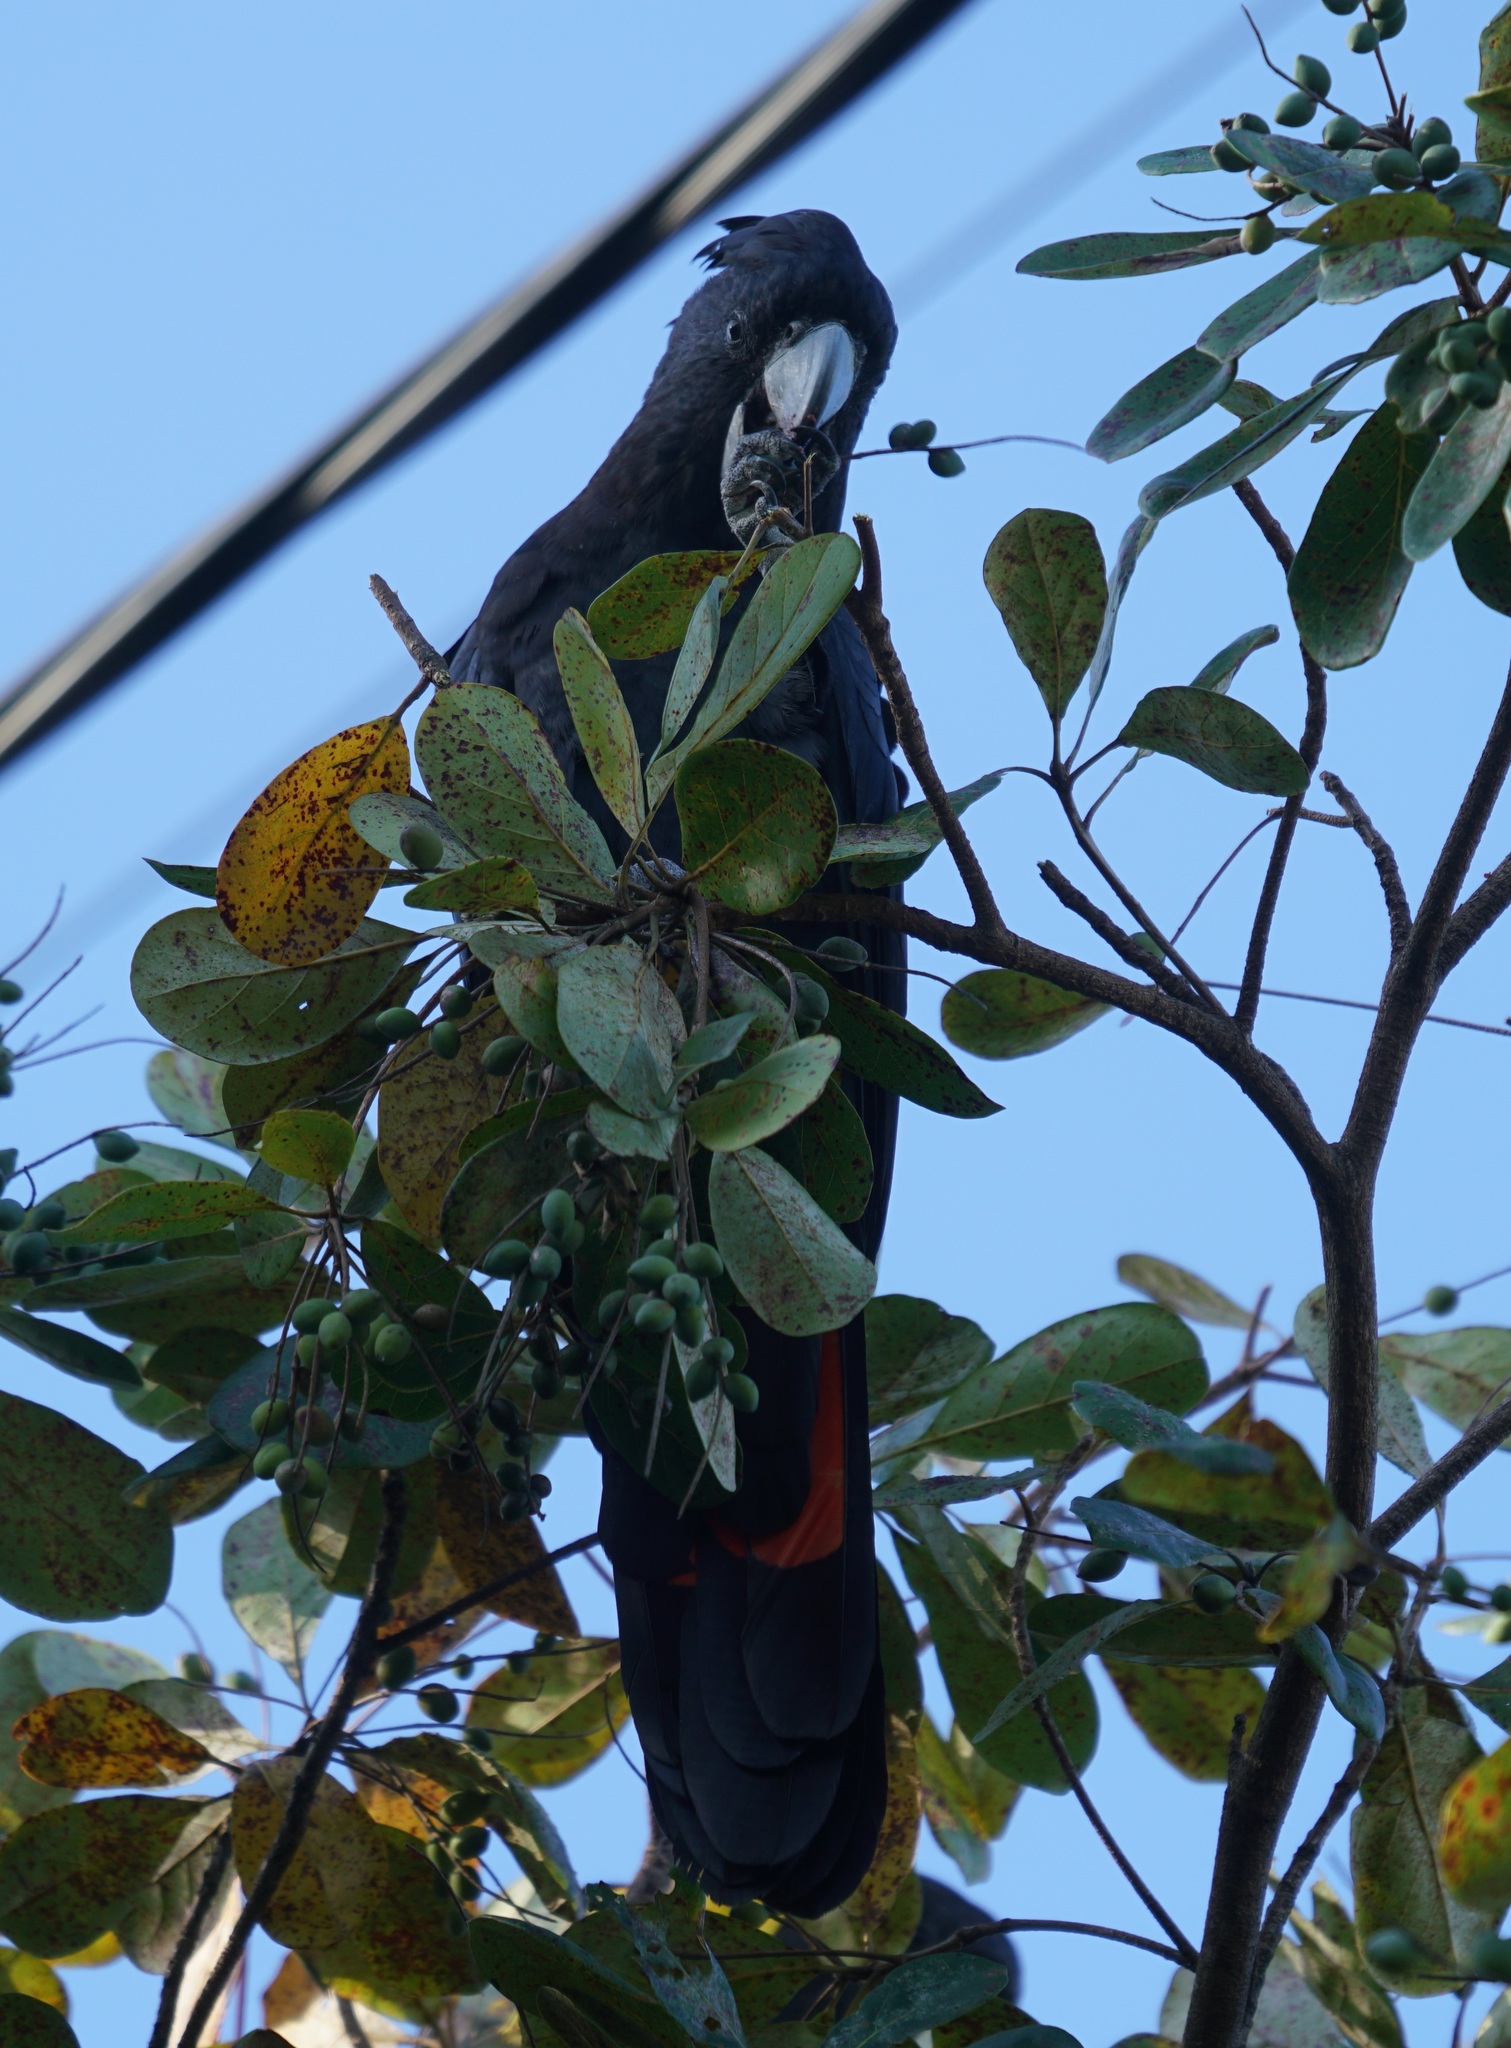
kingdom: Animalia
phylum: Chordata
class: Aves
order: Psittaciformes
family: Psittacidae
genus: Calyptorhynchus
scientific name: Calyptorhynchus banksii
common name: Red-tailed black cockatoo
